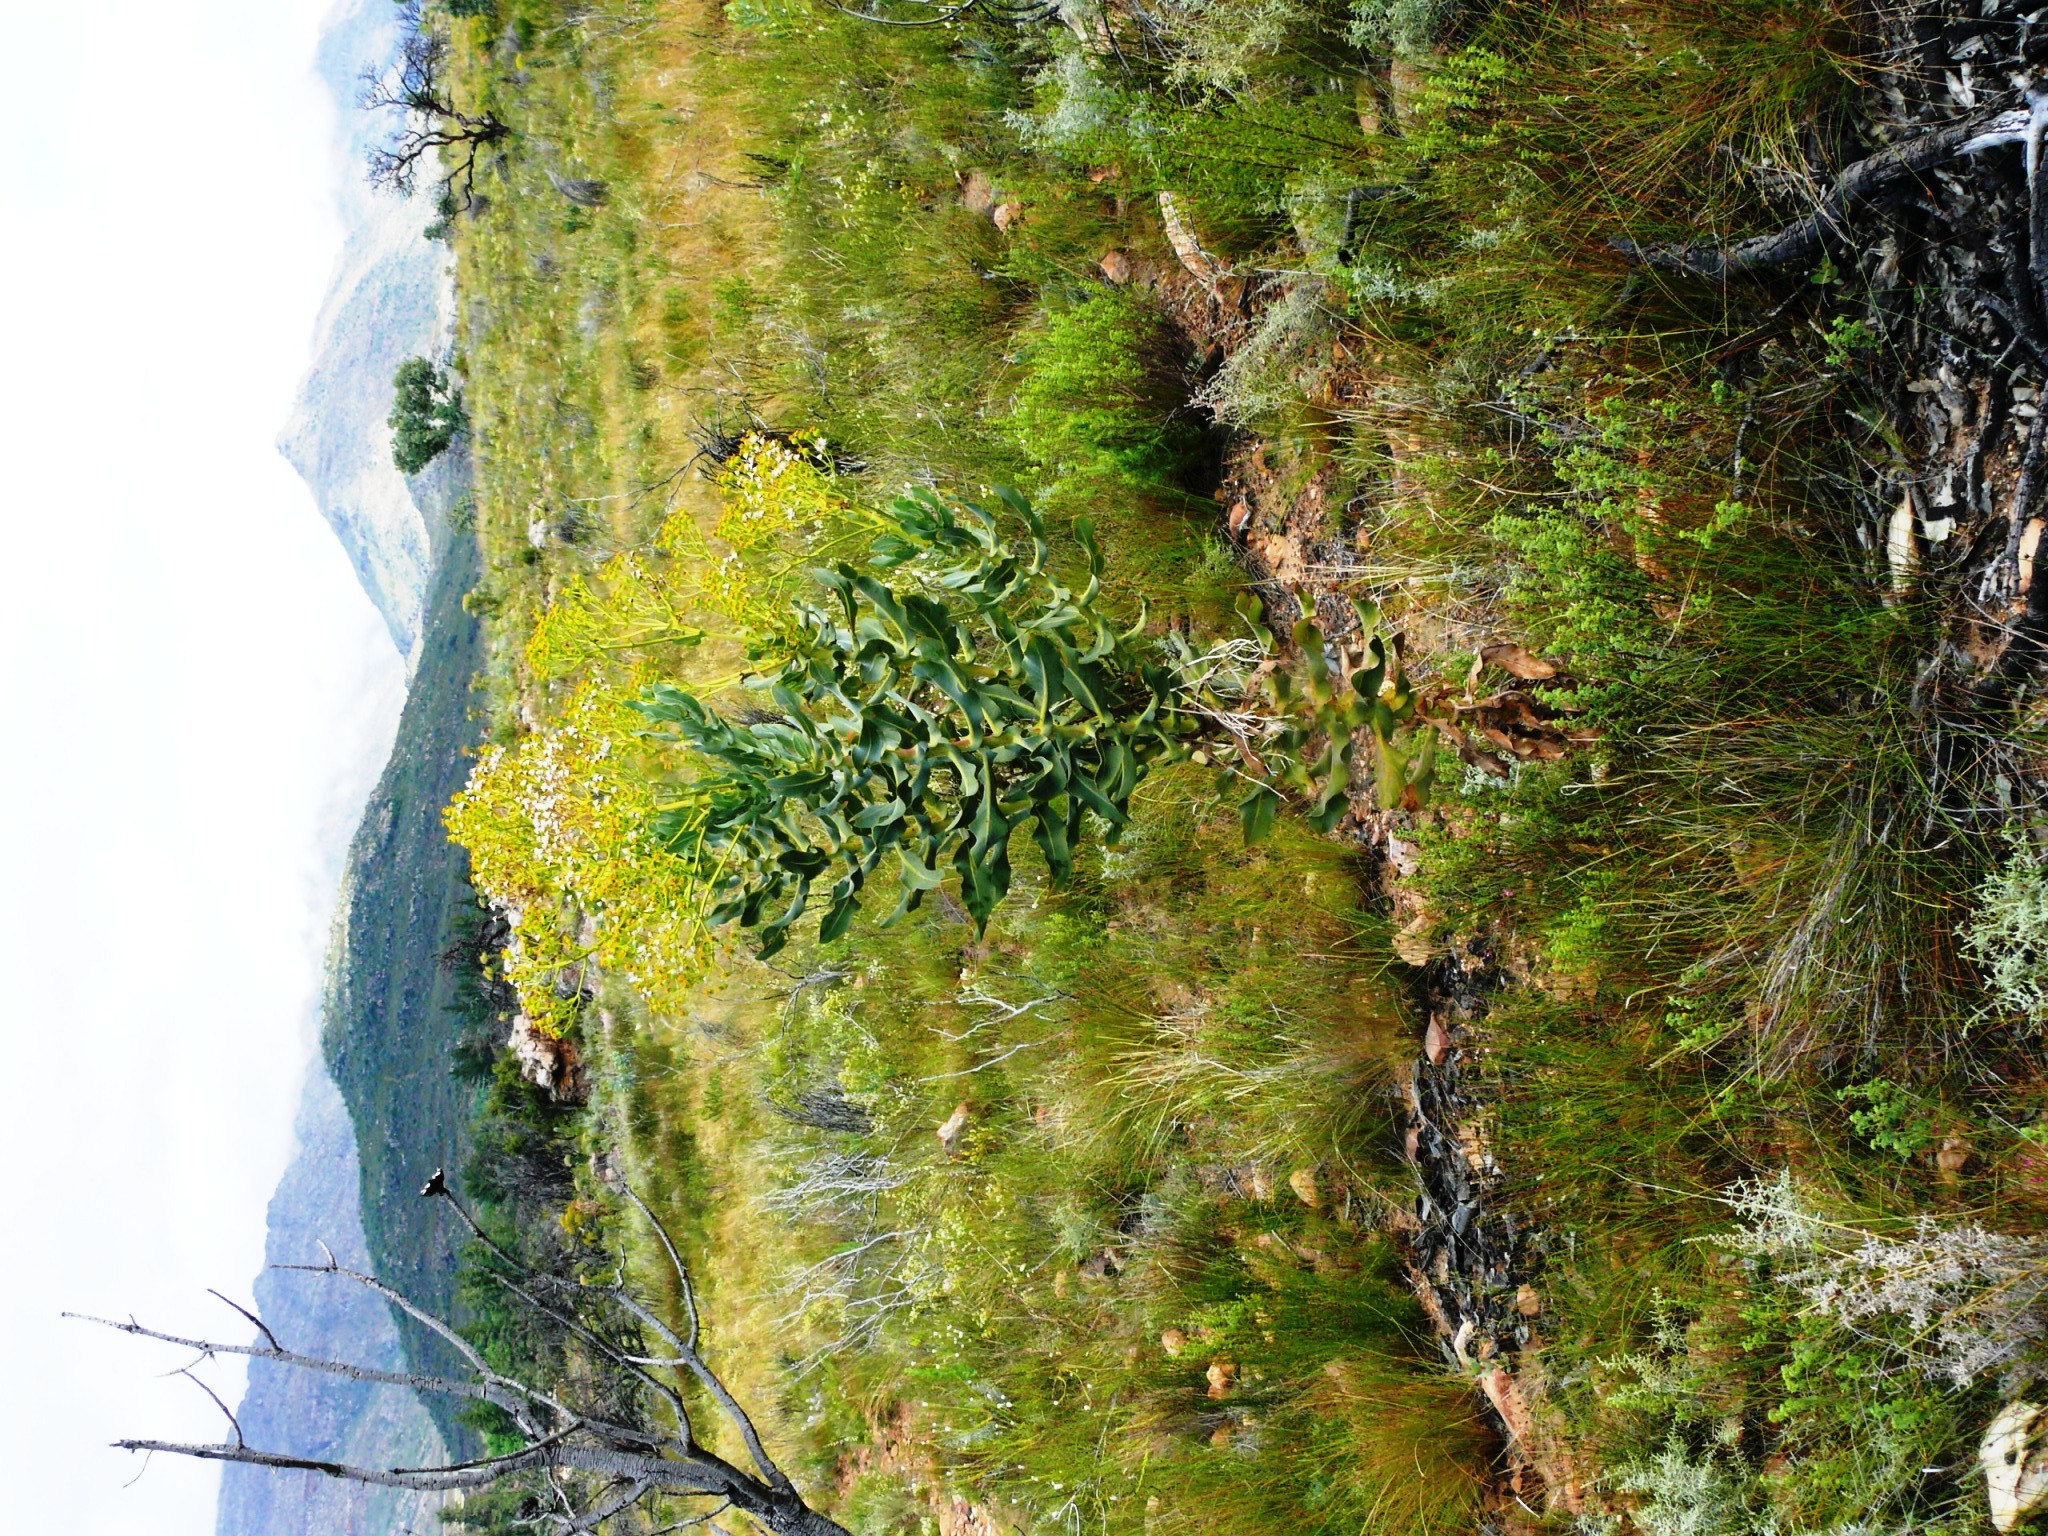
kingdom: Plantae
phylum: Tracheophyta
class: Magnoliopsida
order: Asterales
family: Asteraceae
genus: Othonna
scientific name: Othonna parviflora
